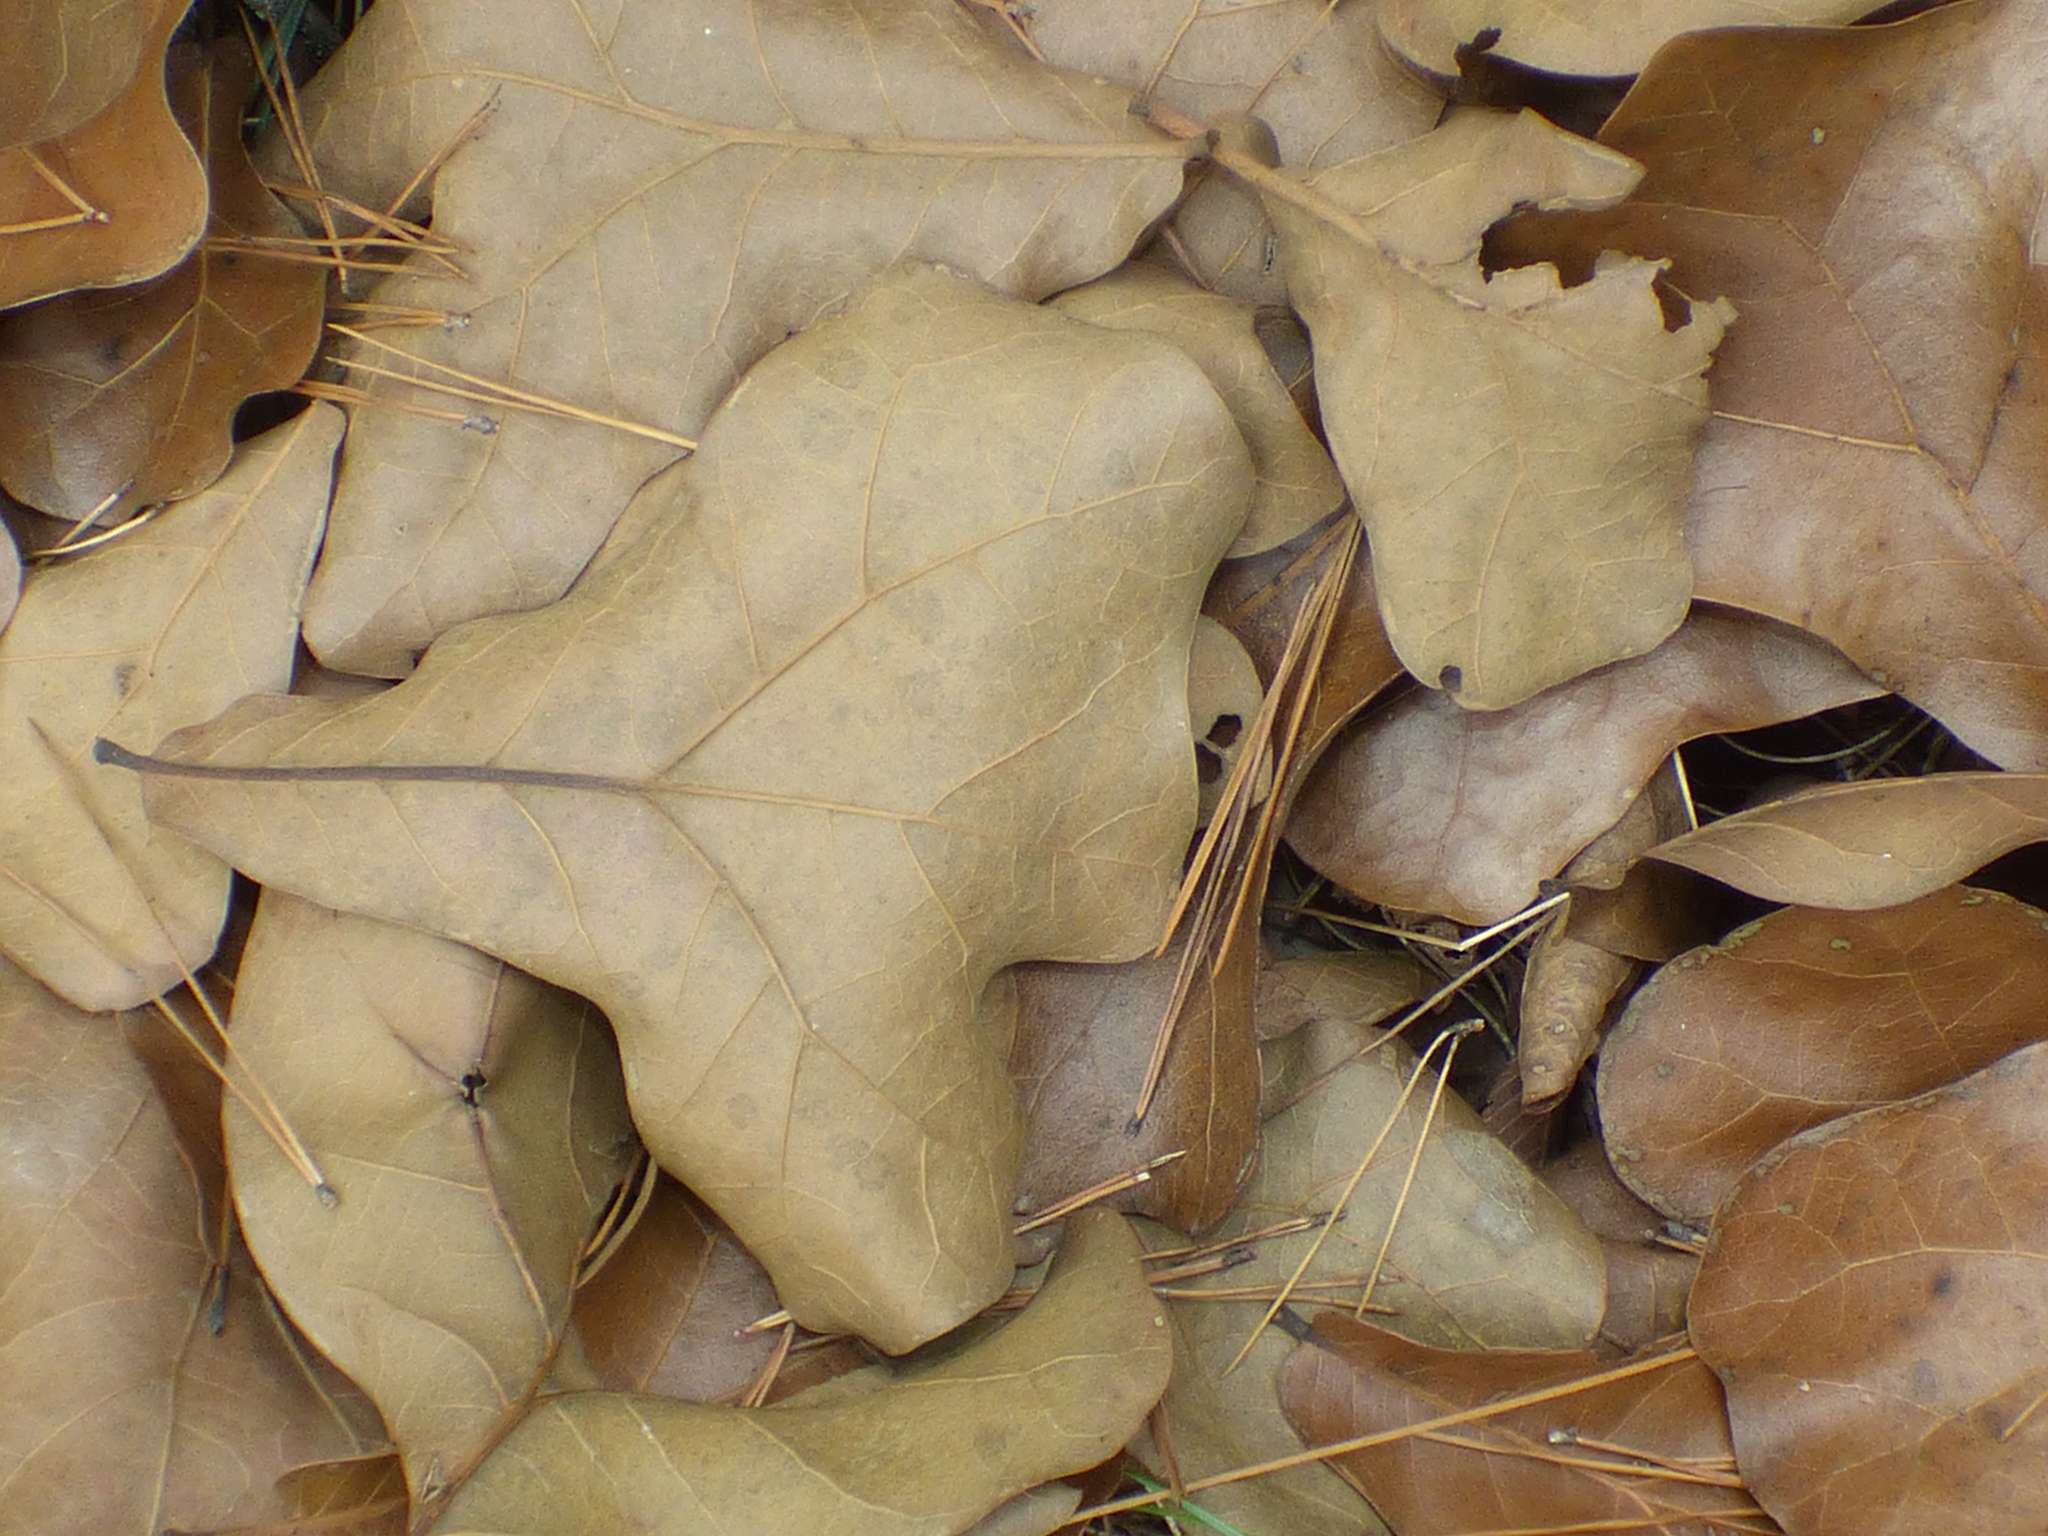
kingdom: Plantae
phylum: Tracheophyta
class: Magnoliopsida
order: Fagales
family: Fagaceae
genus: Quercus
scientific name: Quercus marilandica
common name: Blackjack oak
